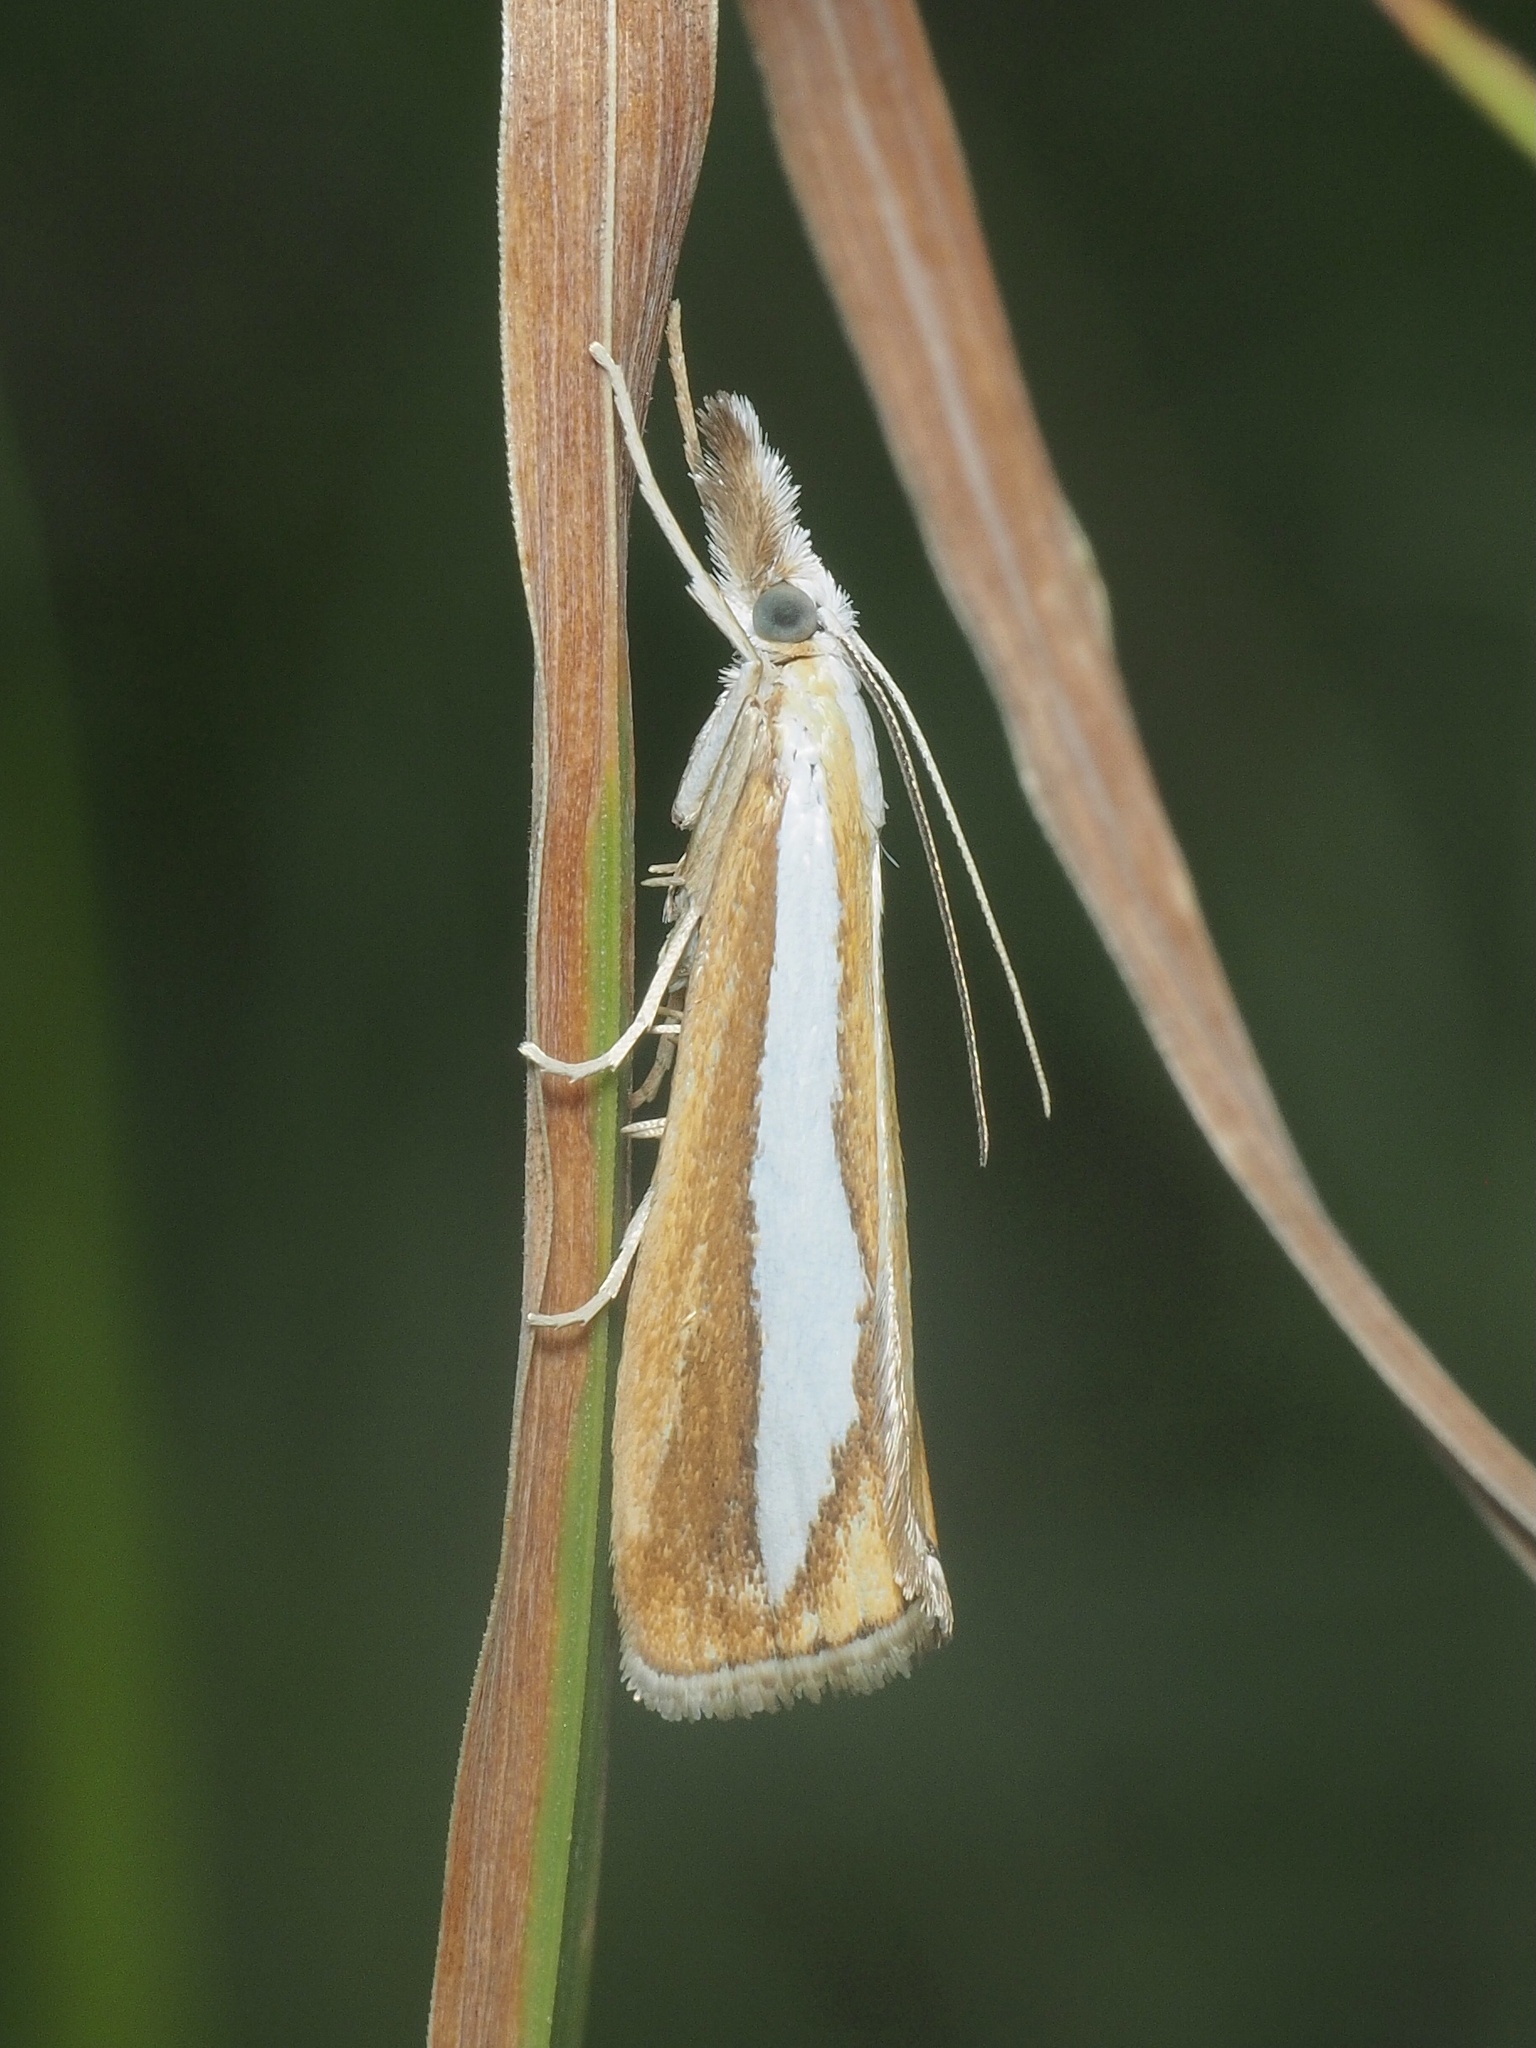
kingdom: Animalia
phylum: Arthropoda
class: Insecta
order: Lepidoptera
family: Crambidae
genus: Catoptria
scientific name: Catoptria margaritellus
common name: Pearl-band grass veneer
